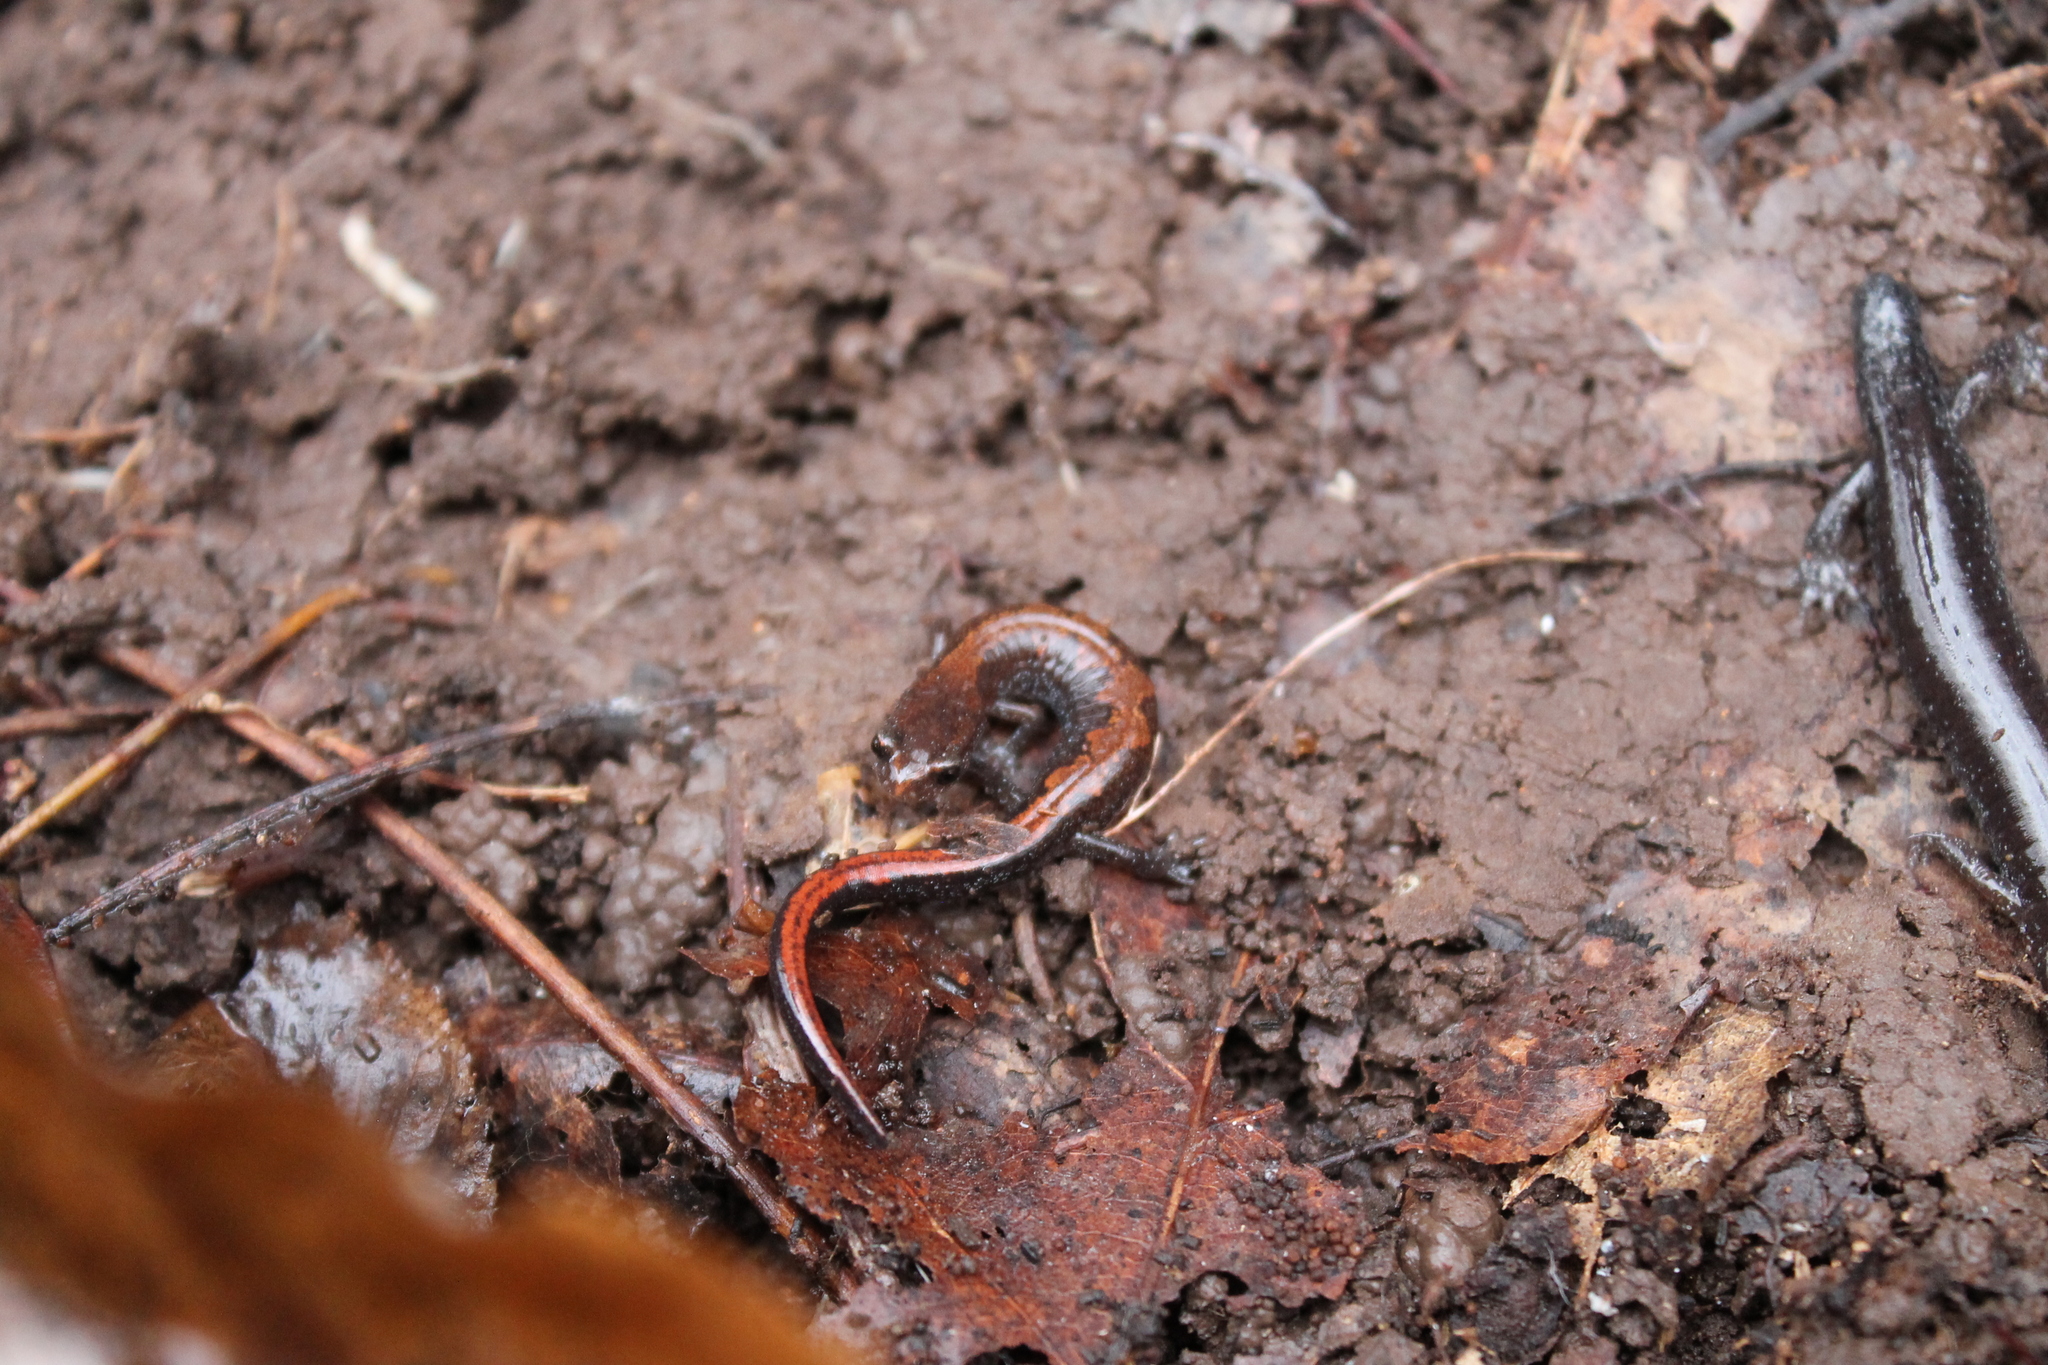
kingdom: Animalia
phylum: Chordata
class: Amphibia
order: Caudata
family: Plethodontidae
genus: Plethodon
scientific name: Plethodon dorsalis
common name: Northern zigzag salamander
